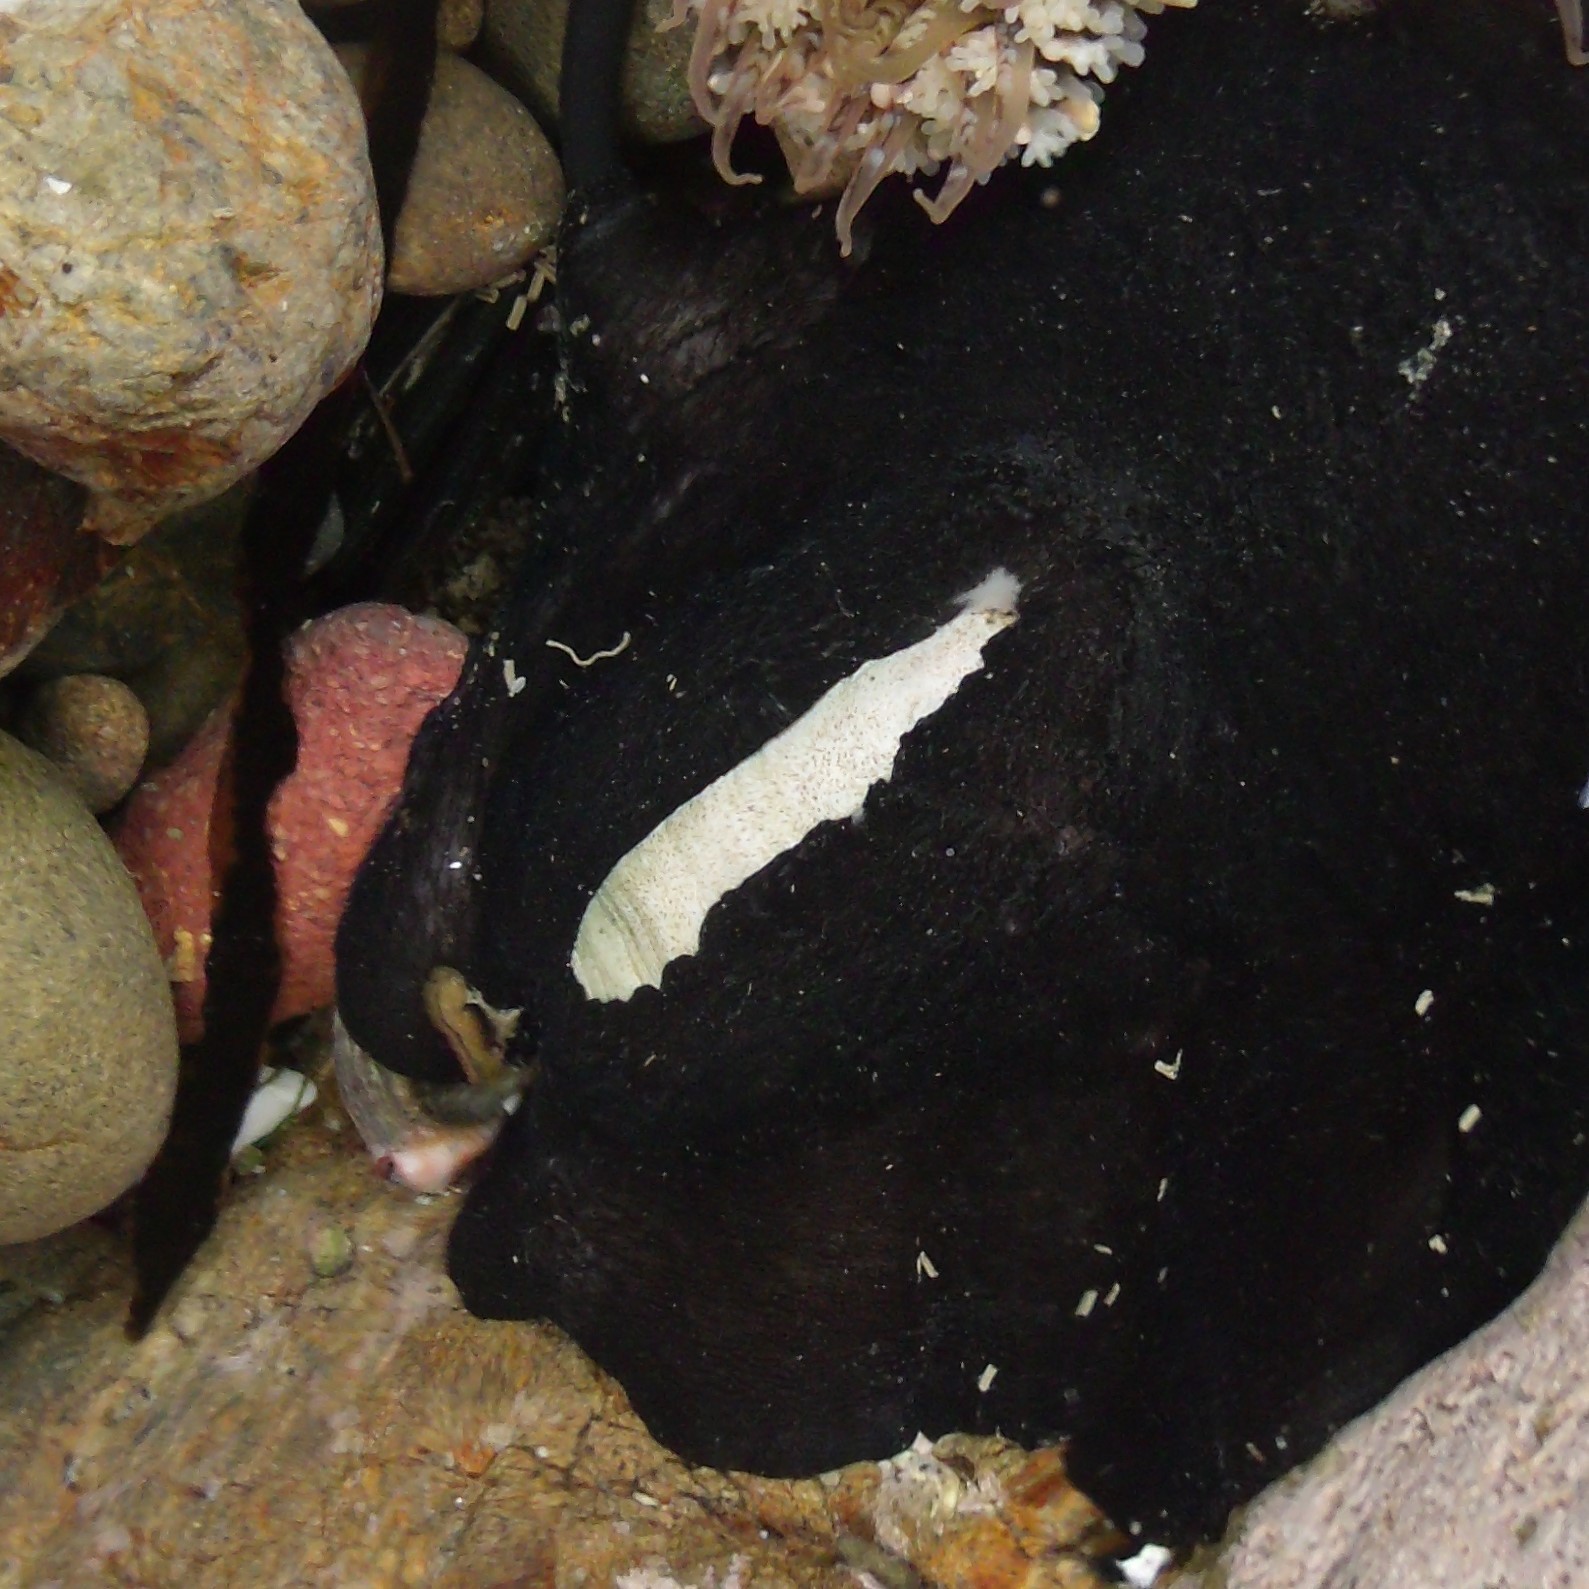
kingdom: Animalia
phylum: Mollusca
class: Gastropoda
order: Lepetellida
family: Fissurellidae
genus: Scutus
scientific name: Scutus breviculus
